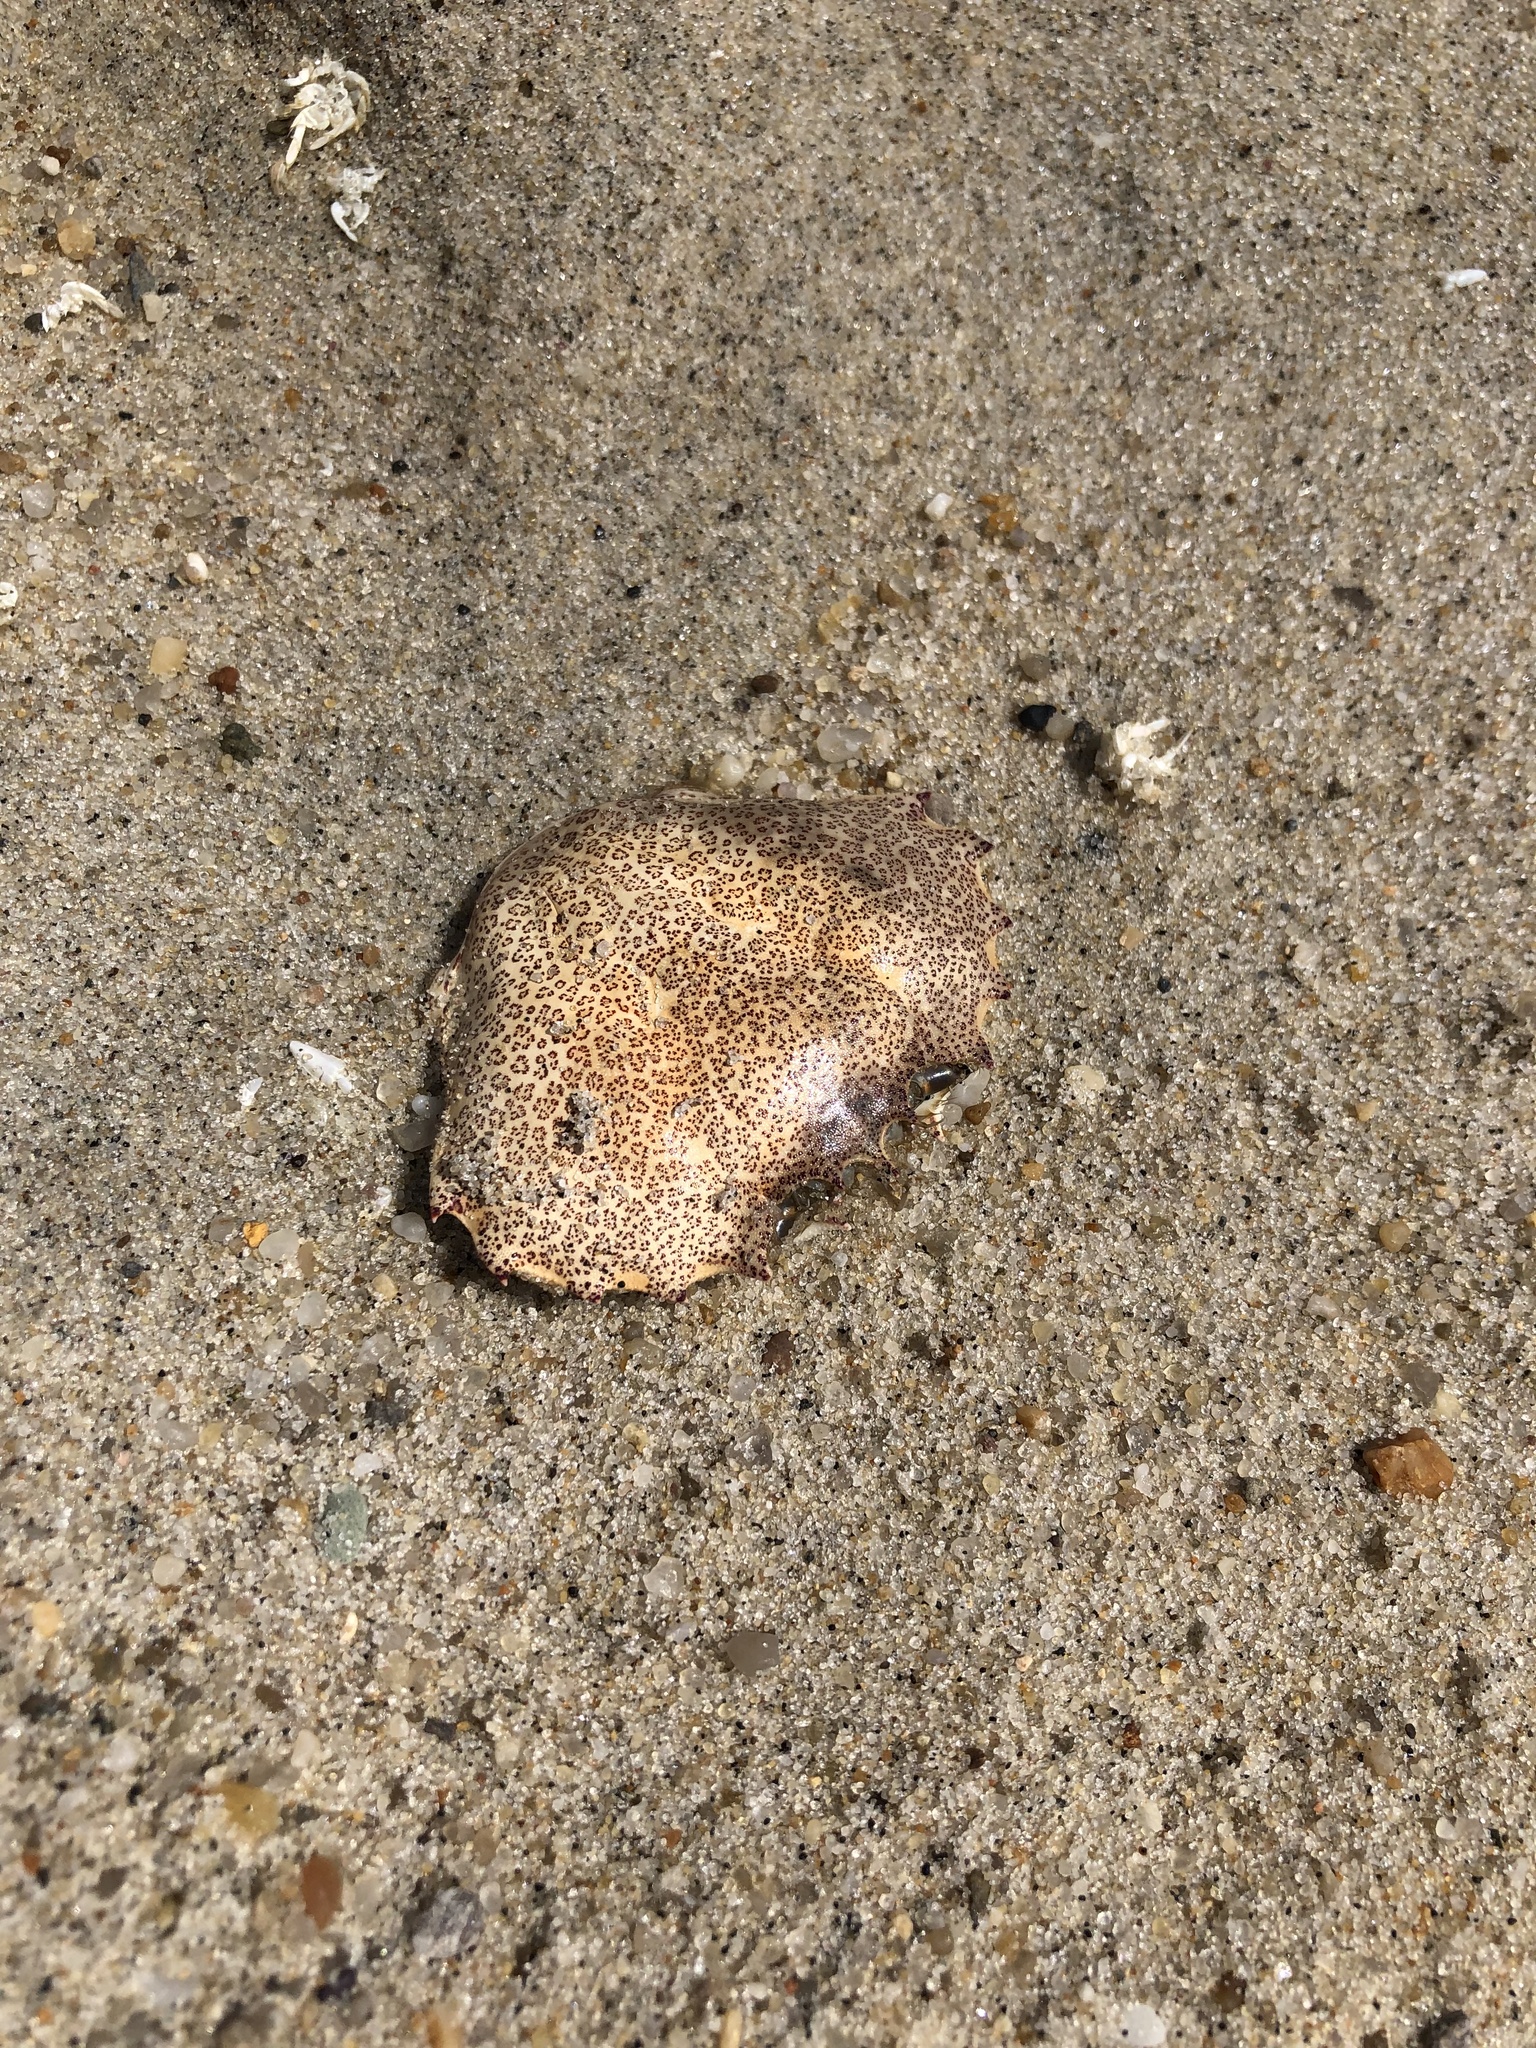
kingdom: Animalia
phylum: Arthropoda
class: Malacostraca
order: Decapoda
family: Ovalipidae
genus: Ovalipes
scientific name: Ovalipes ocellatus
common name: Lady crab
